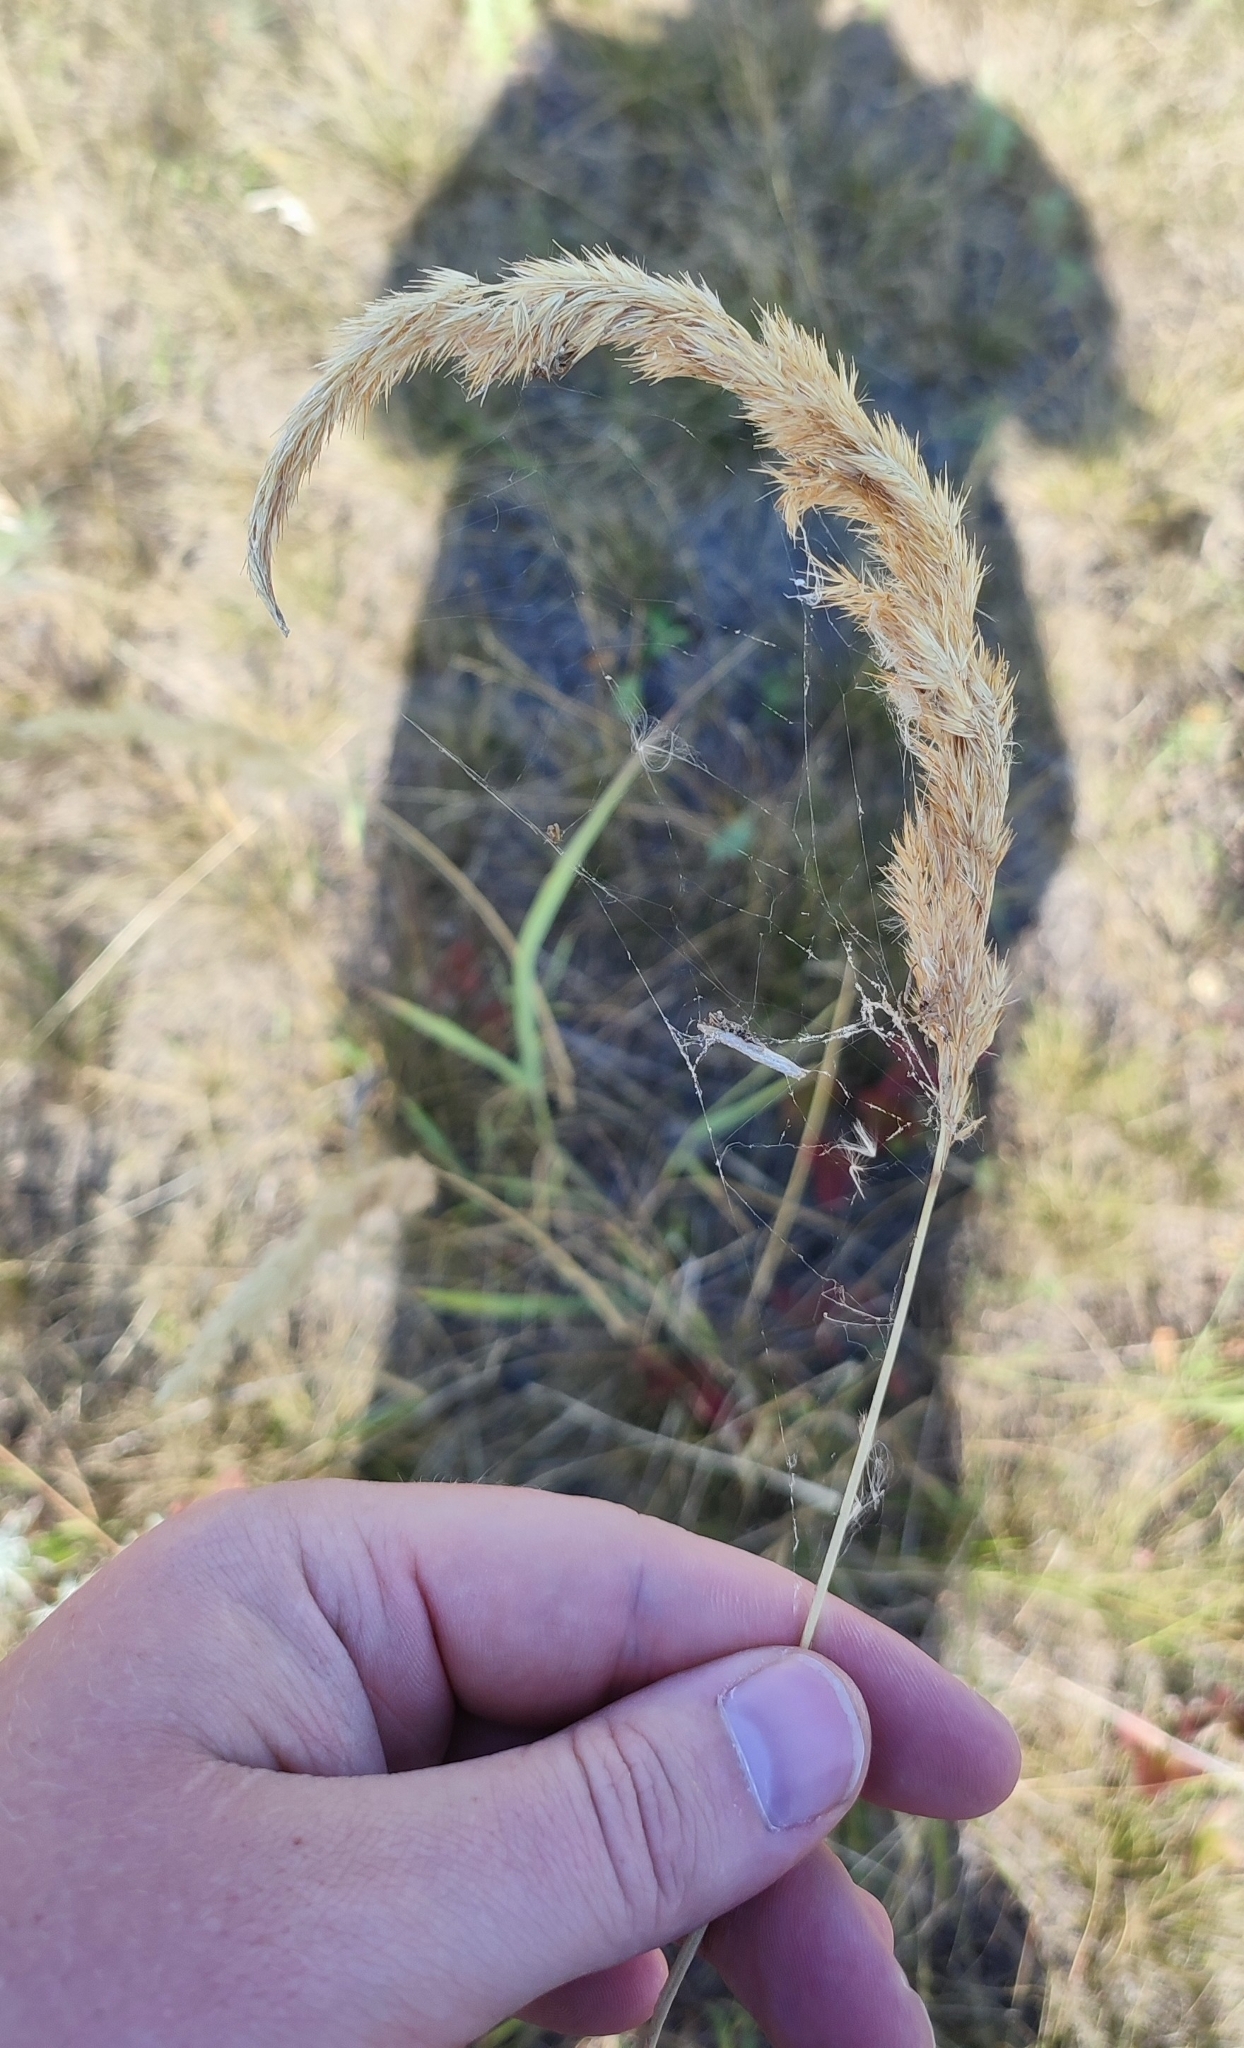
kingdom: Plantae
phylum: Tracheophyta
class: Liliopsida
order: Poales
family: Poaceae
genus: Calamagrostis
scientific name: Calamagrostis epigejos
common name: Wood small-reed
